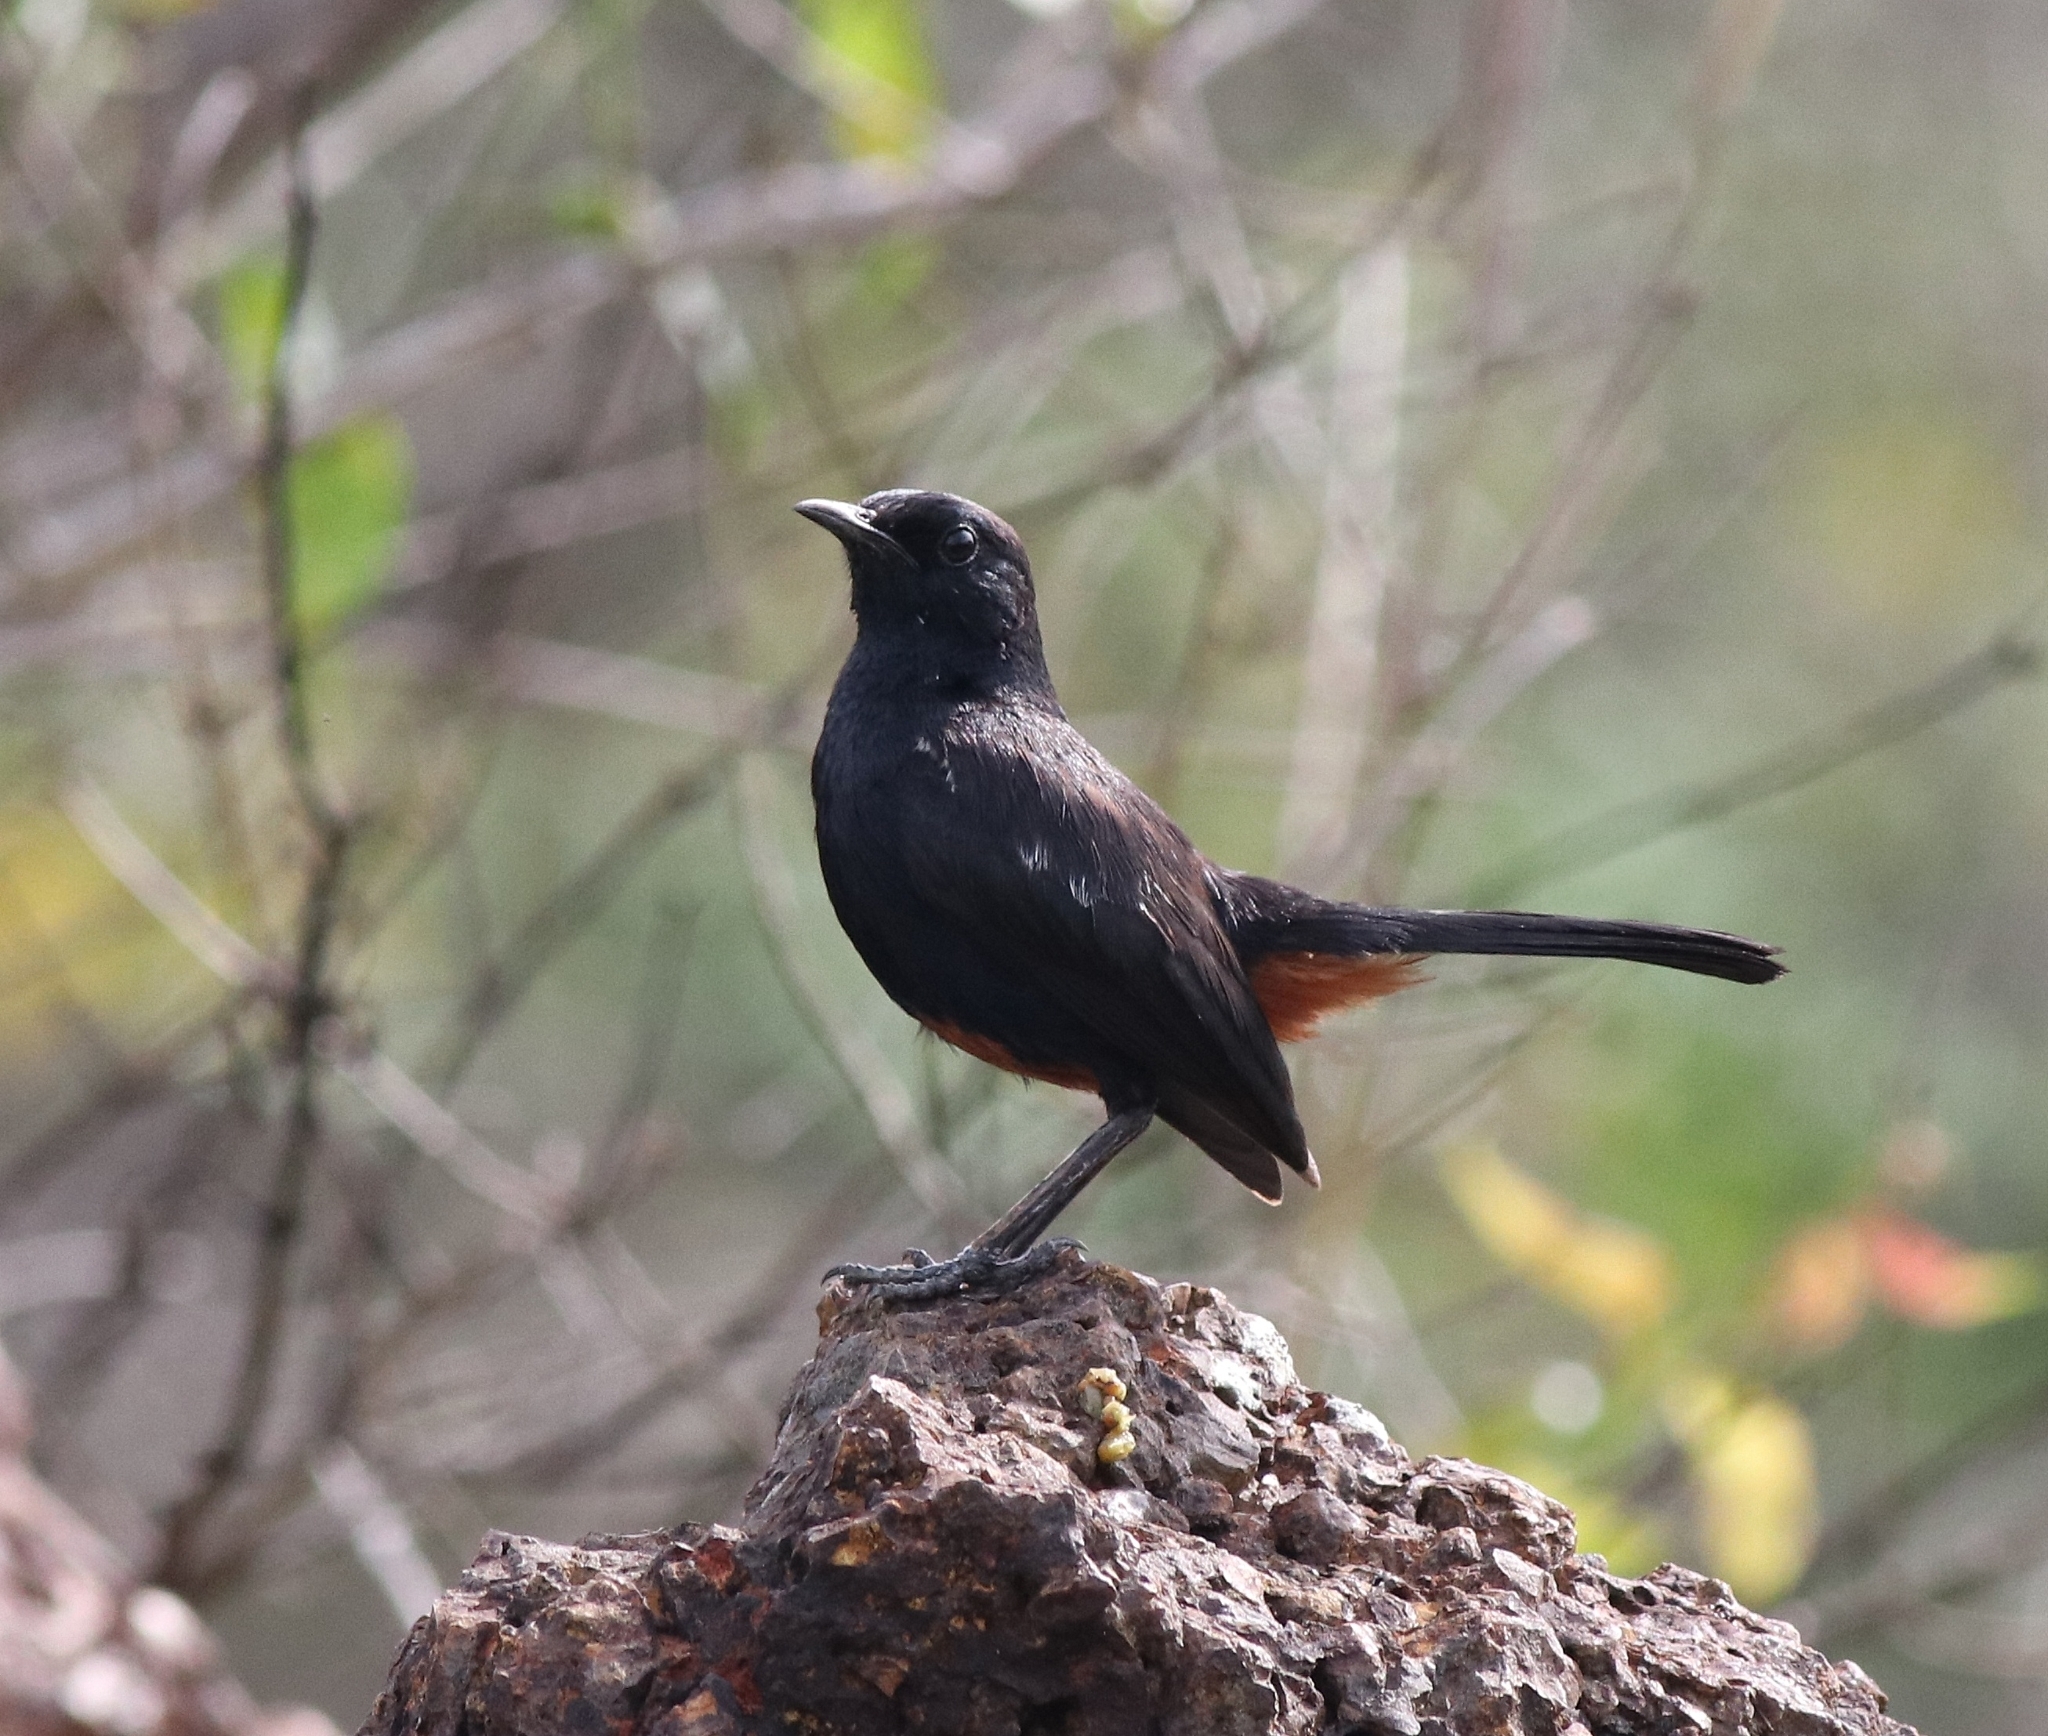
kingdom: Animalia
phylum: Chordata
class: Aves
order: Passeriformes
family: Muscicapidae
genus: Saxicoloides
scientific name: Saxicoloides fulicatus
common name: Indian robin
